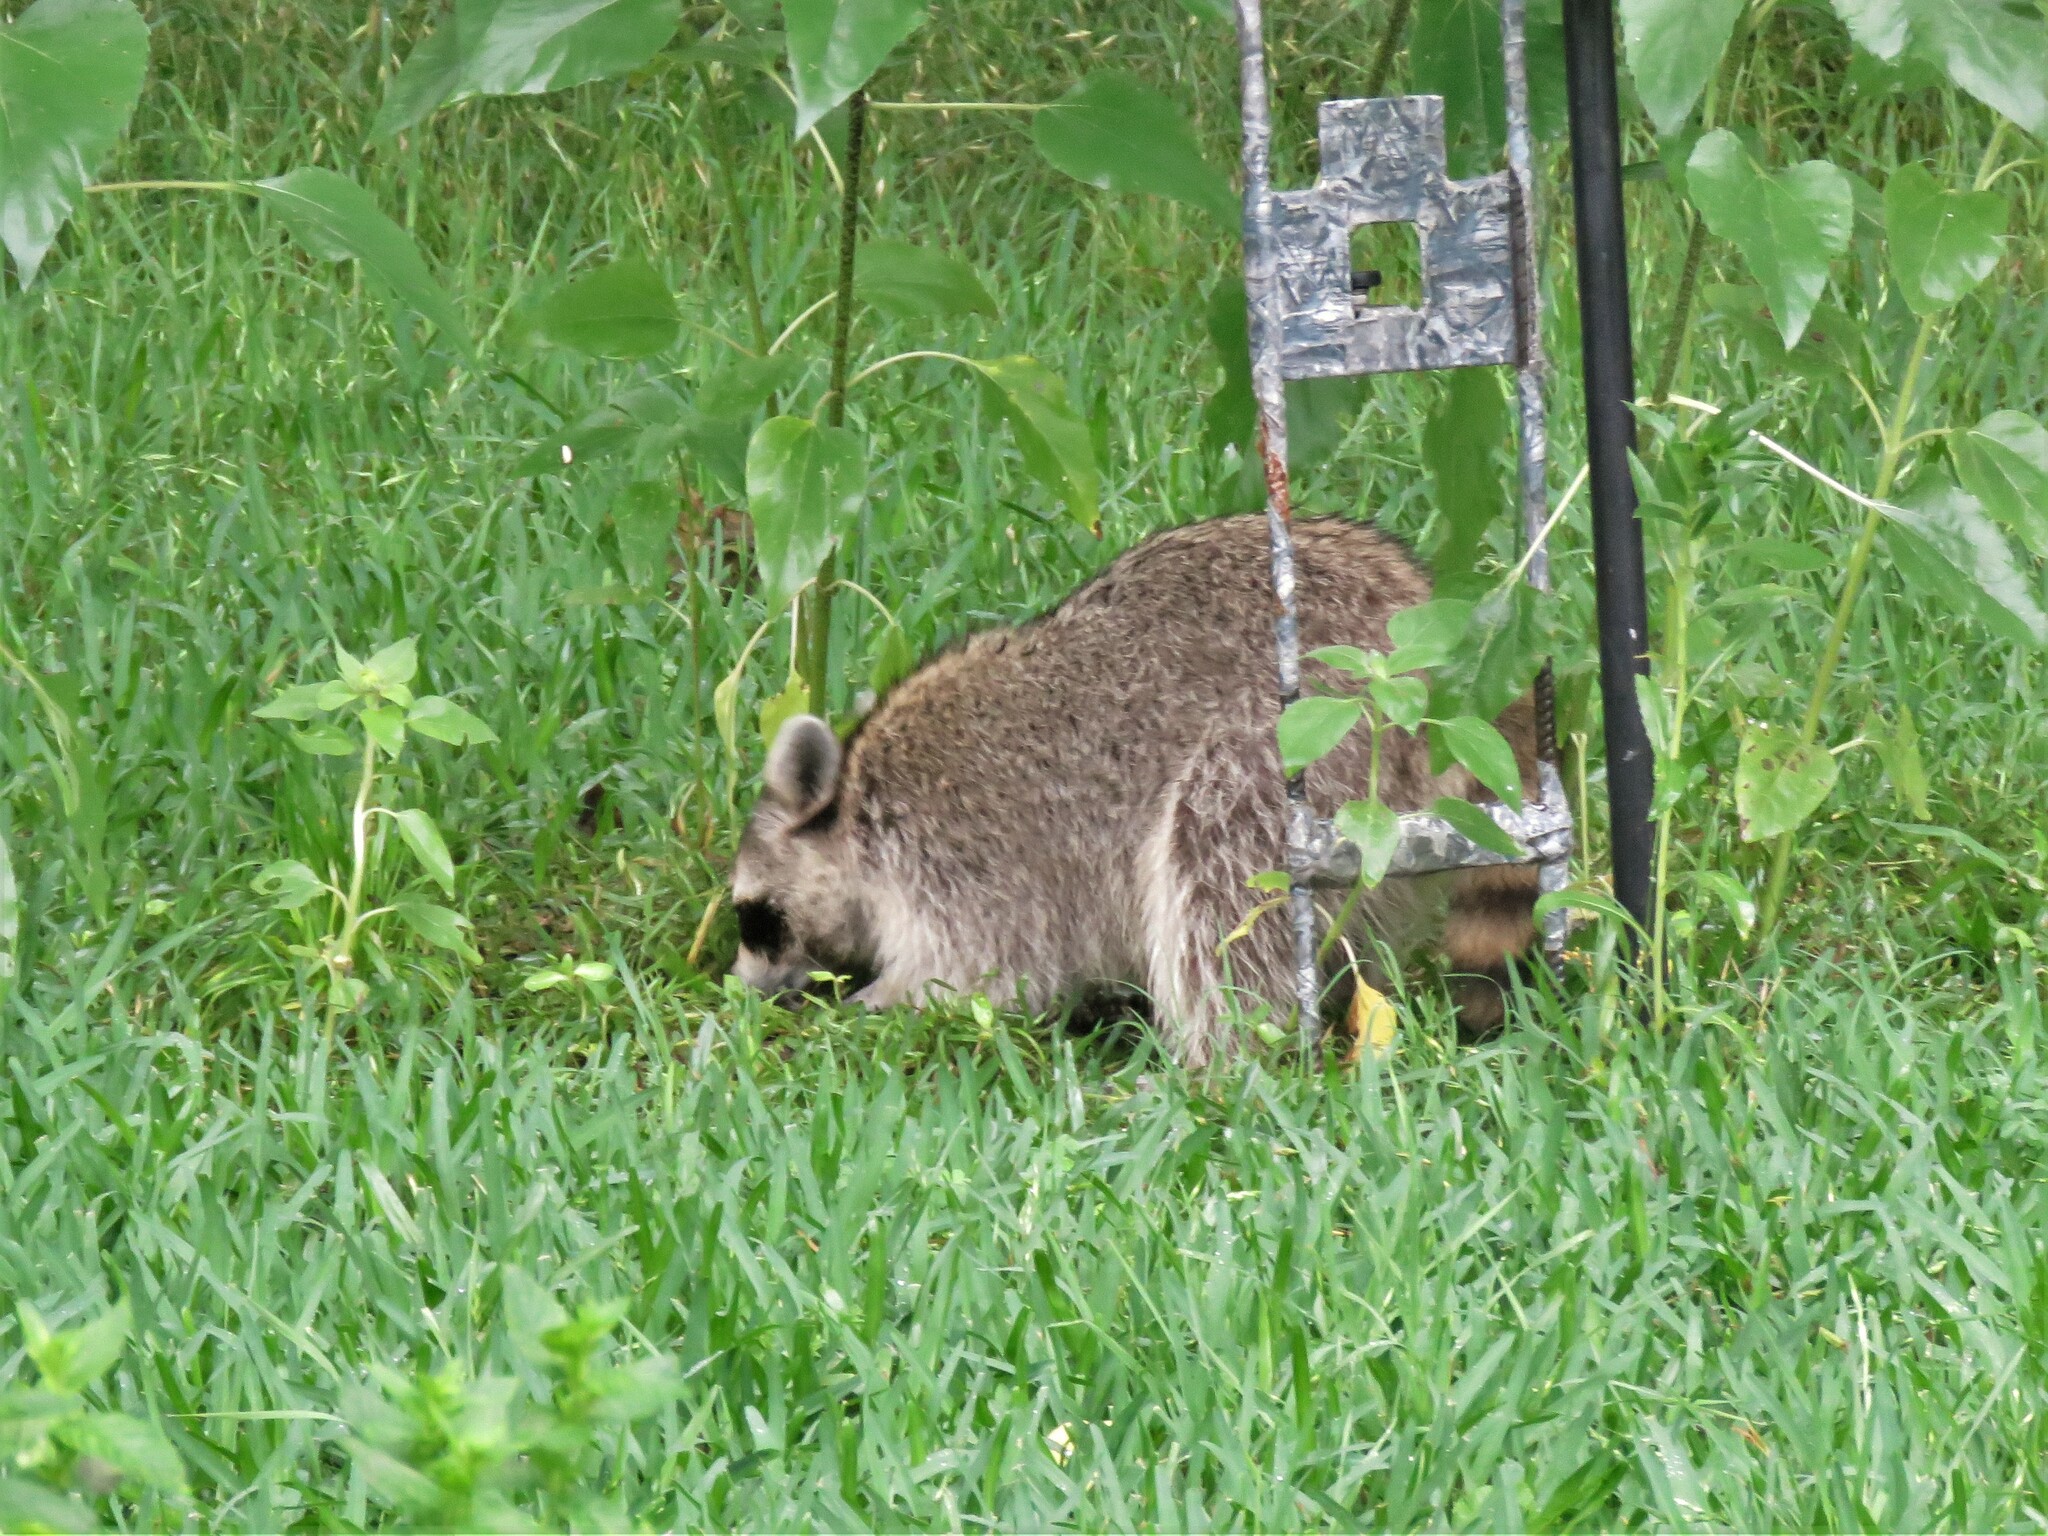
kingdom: Animalia
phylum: Chordata
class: Mammalia
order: Carnivora
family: Procyonidae
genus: Procyon
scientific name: Procyon lotor
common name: Raccoon
